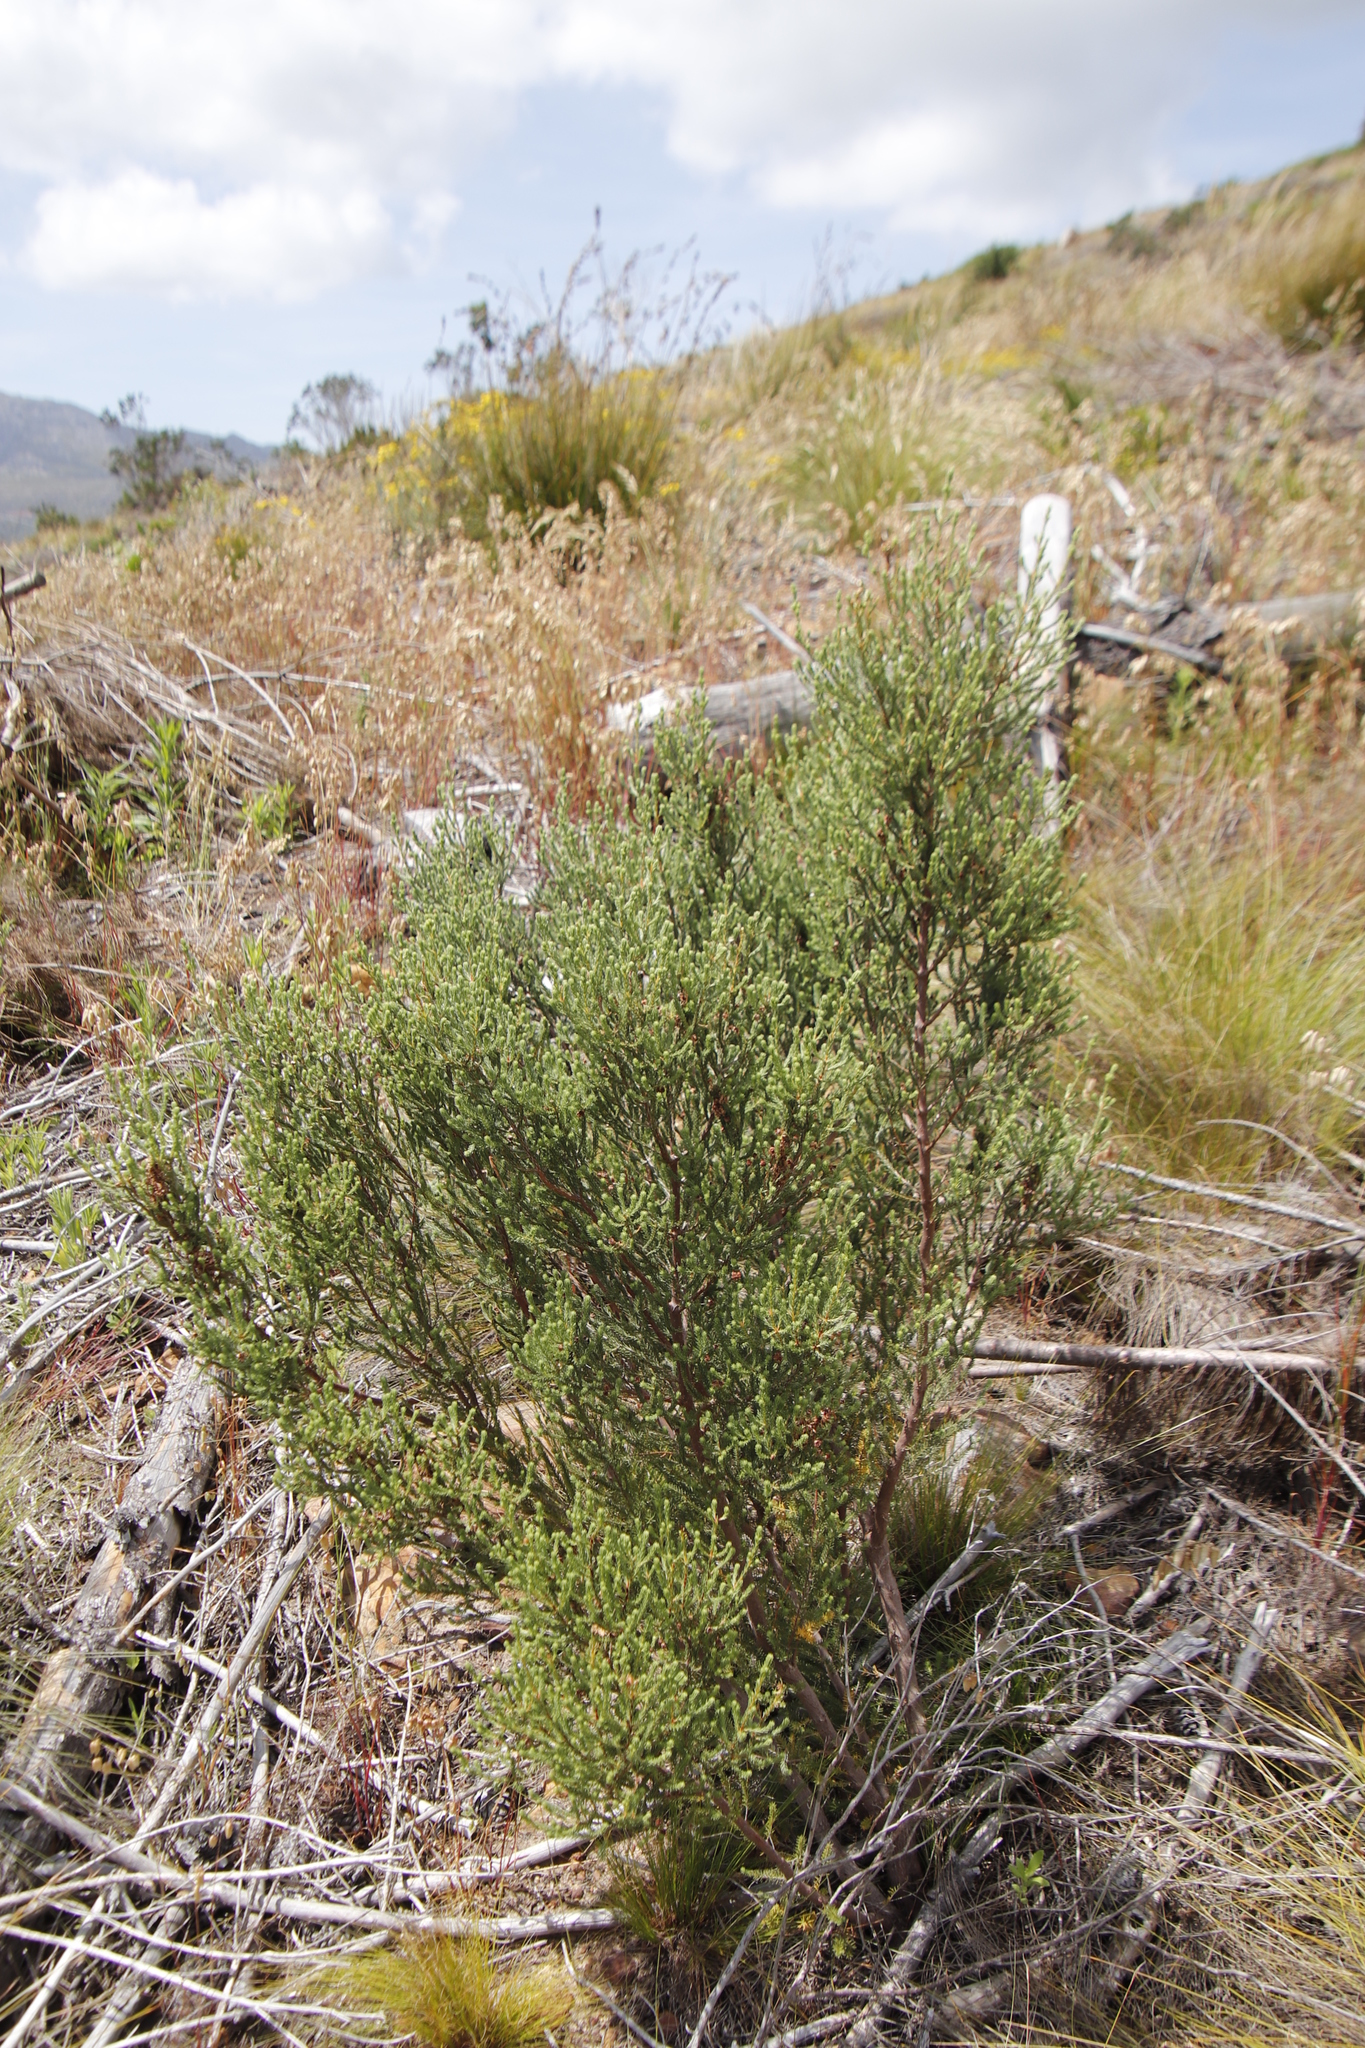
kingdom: Plantae
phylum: Tracheophyta
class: Magnoliopsida
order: Ericales
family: Ericaceae
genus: Erica
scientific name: Erica baccans
